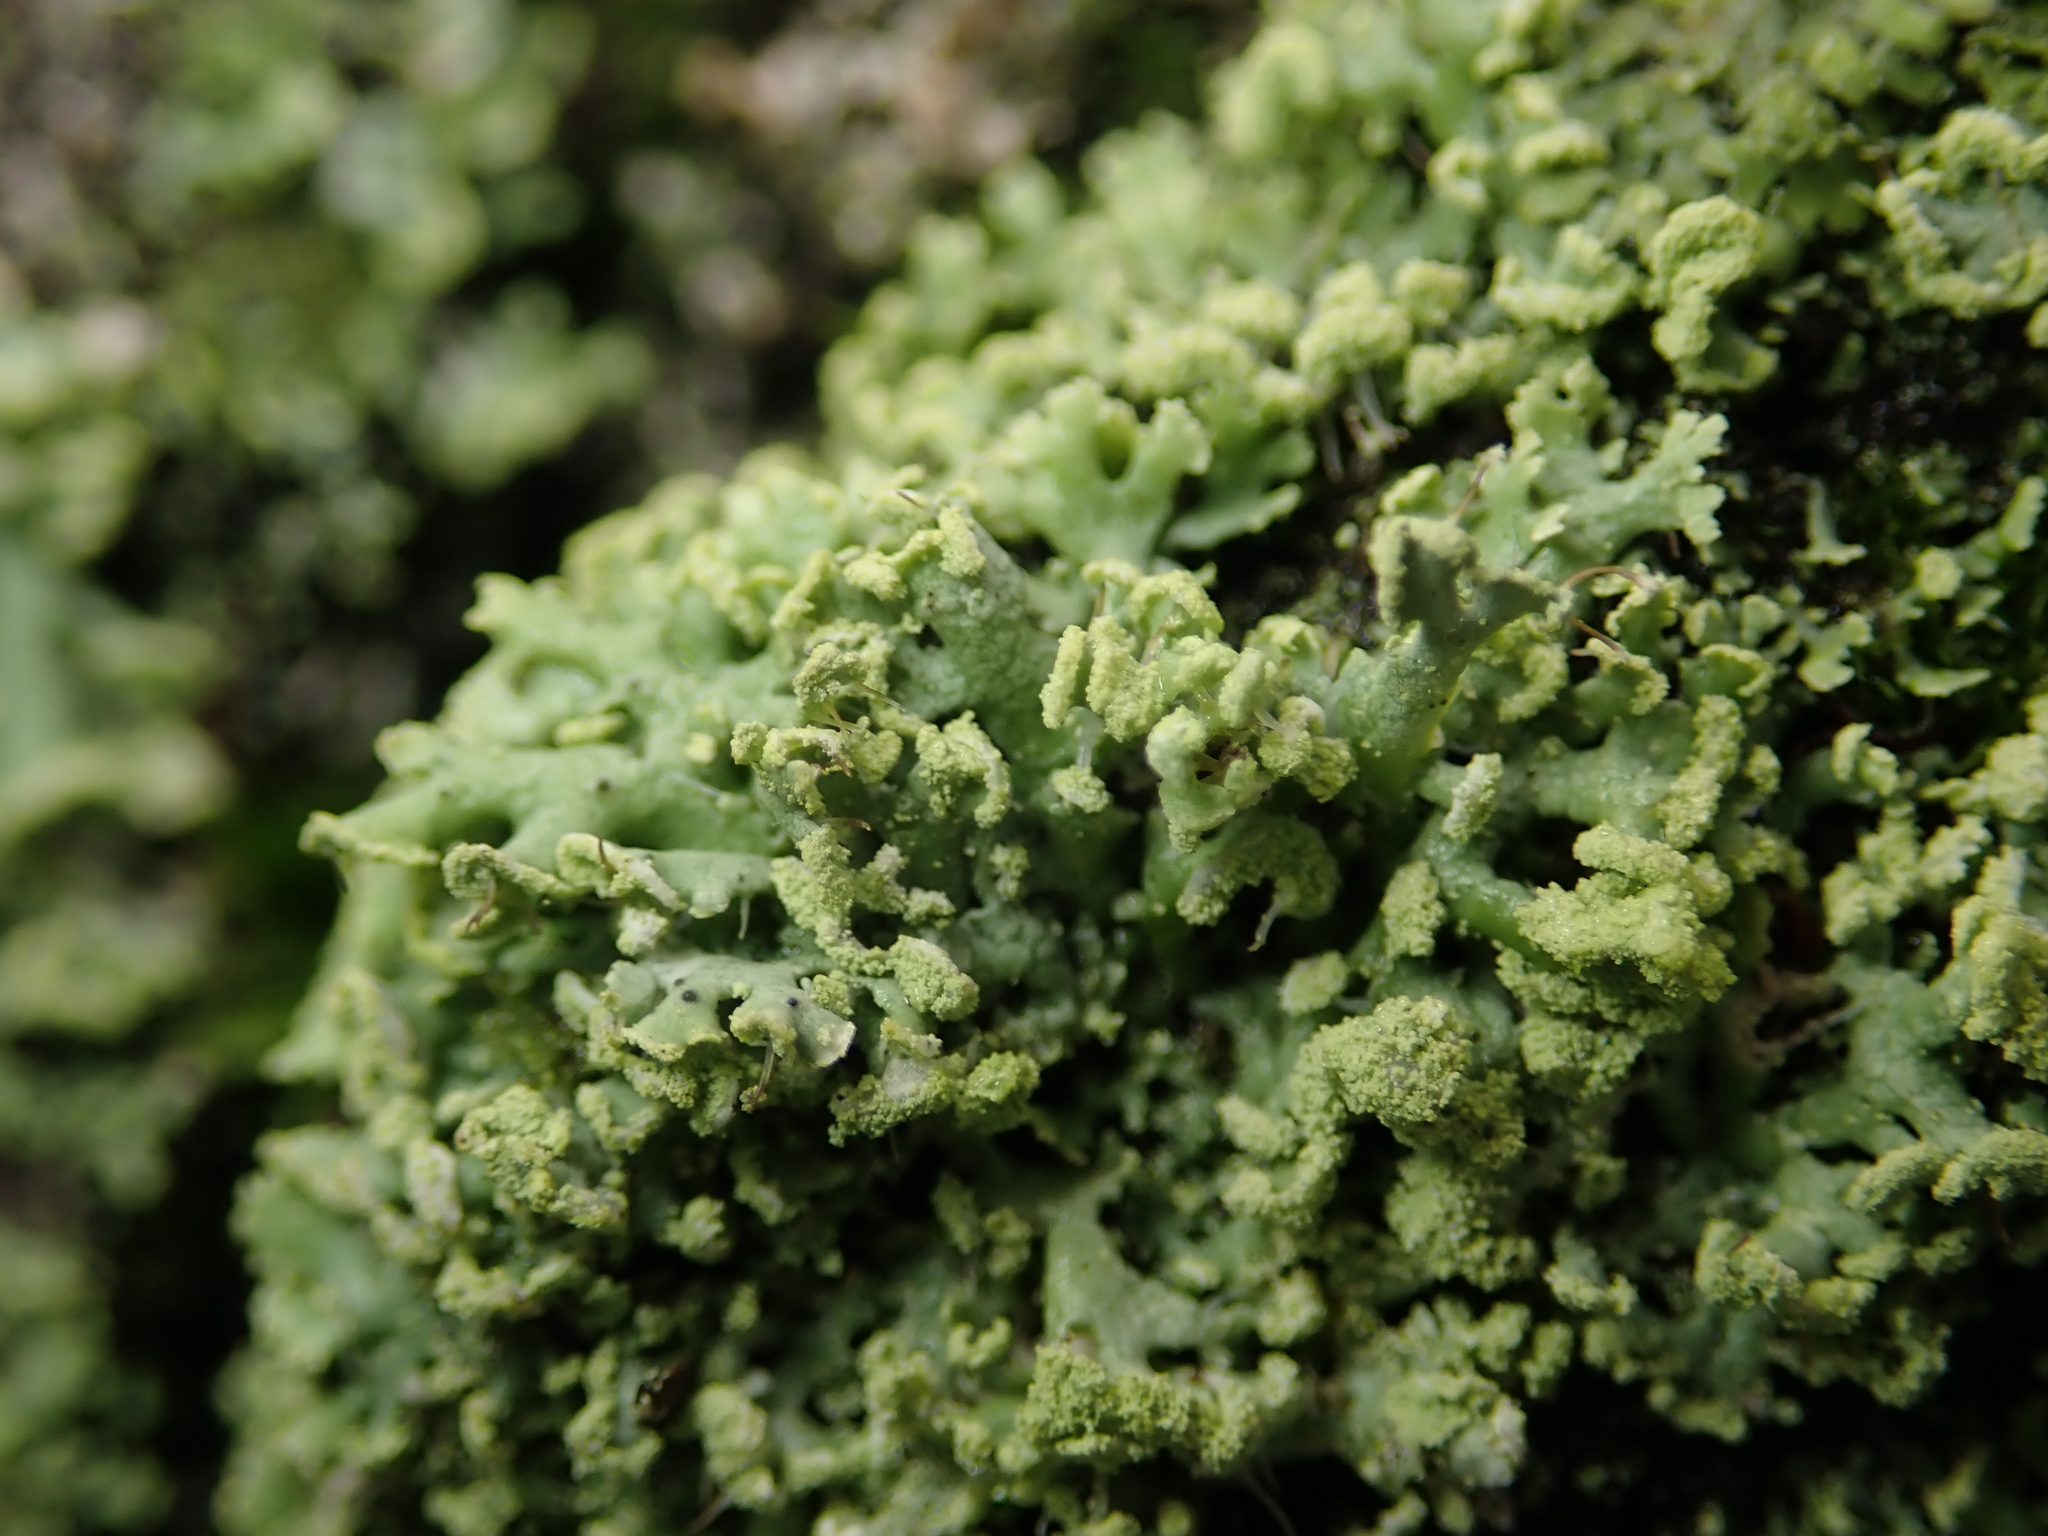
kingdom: Fungi
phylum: Ascomycota
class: Lecanoromycetes
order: Caliciales
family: Physciaceae
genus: Physcia
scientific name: Physcia dubia
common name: Powder-tipped rosette lichen
